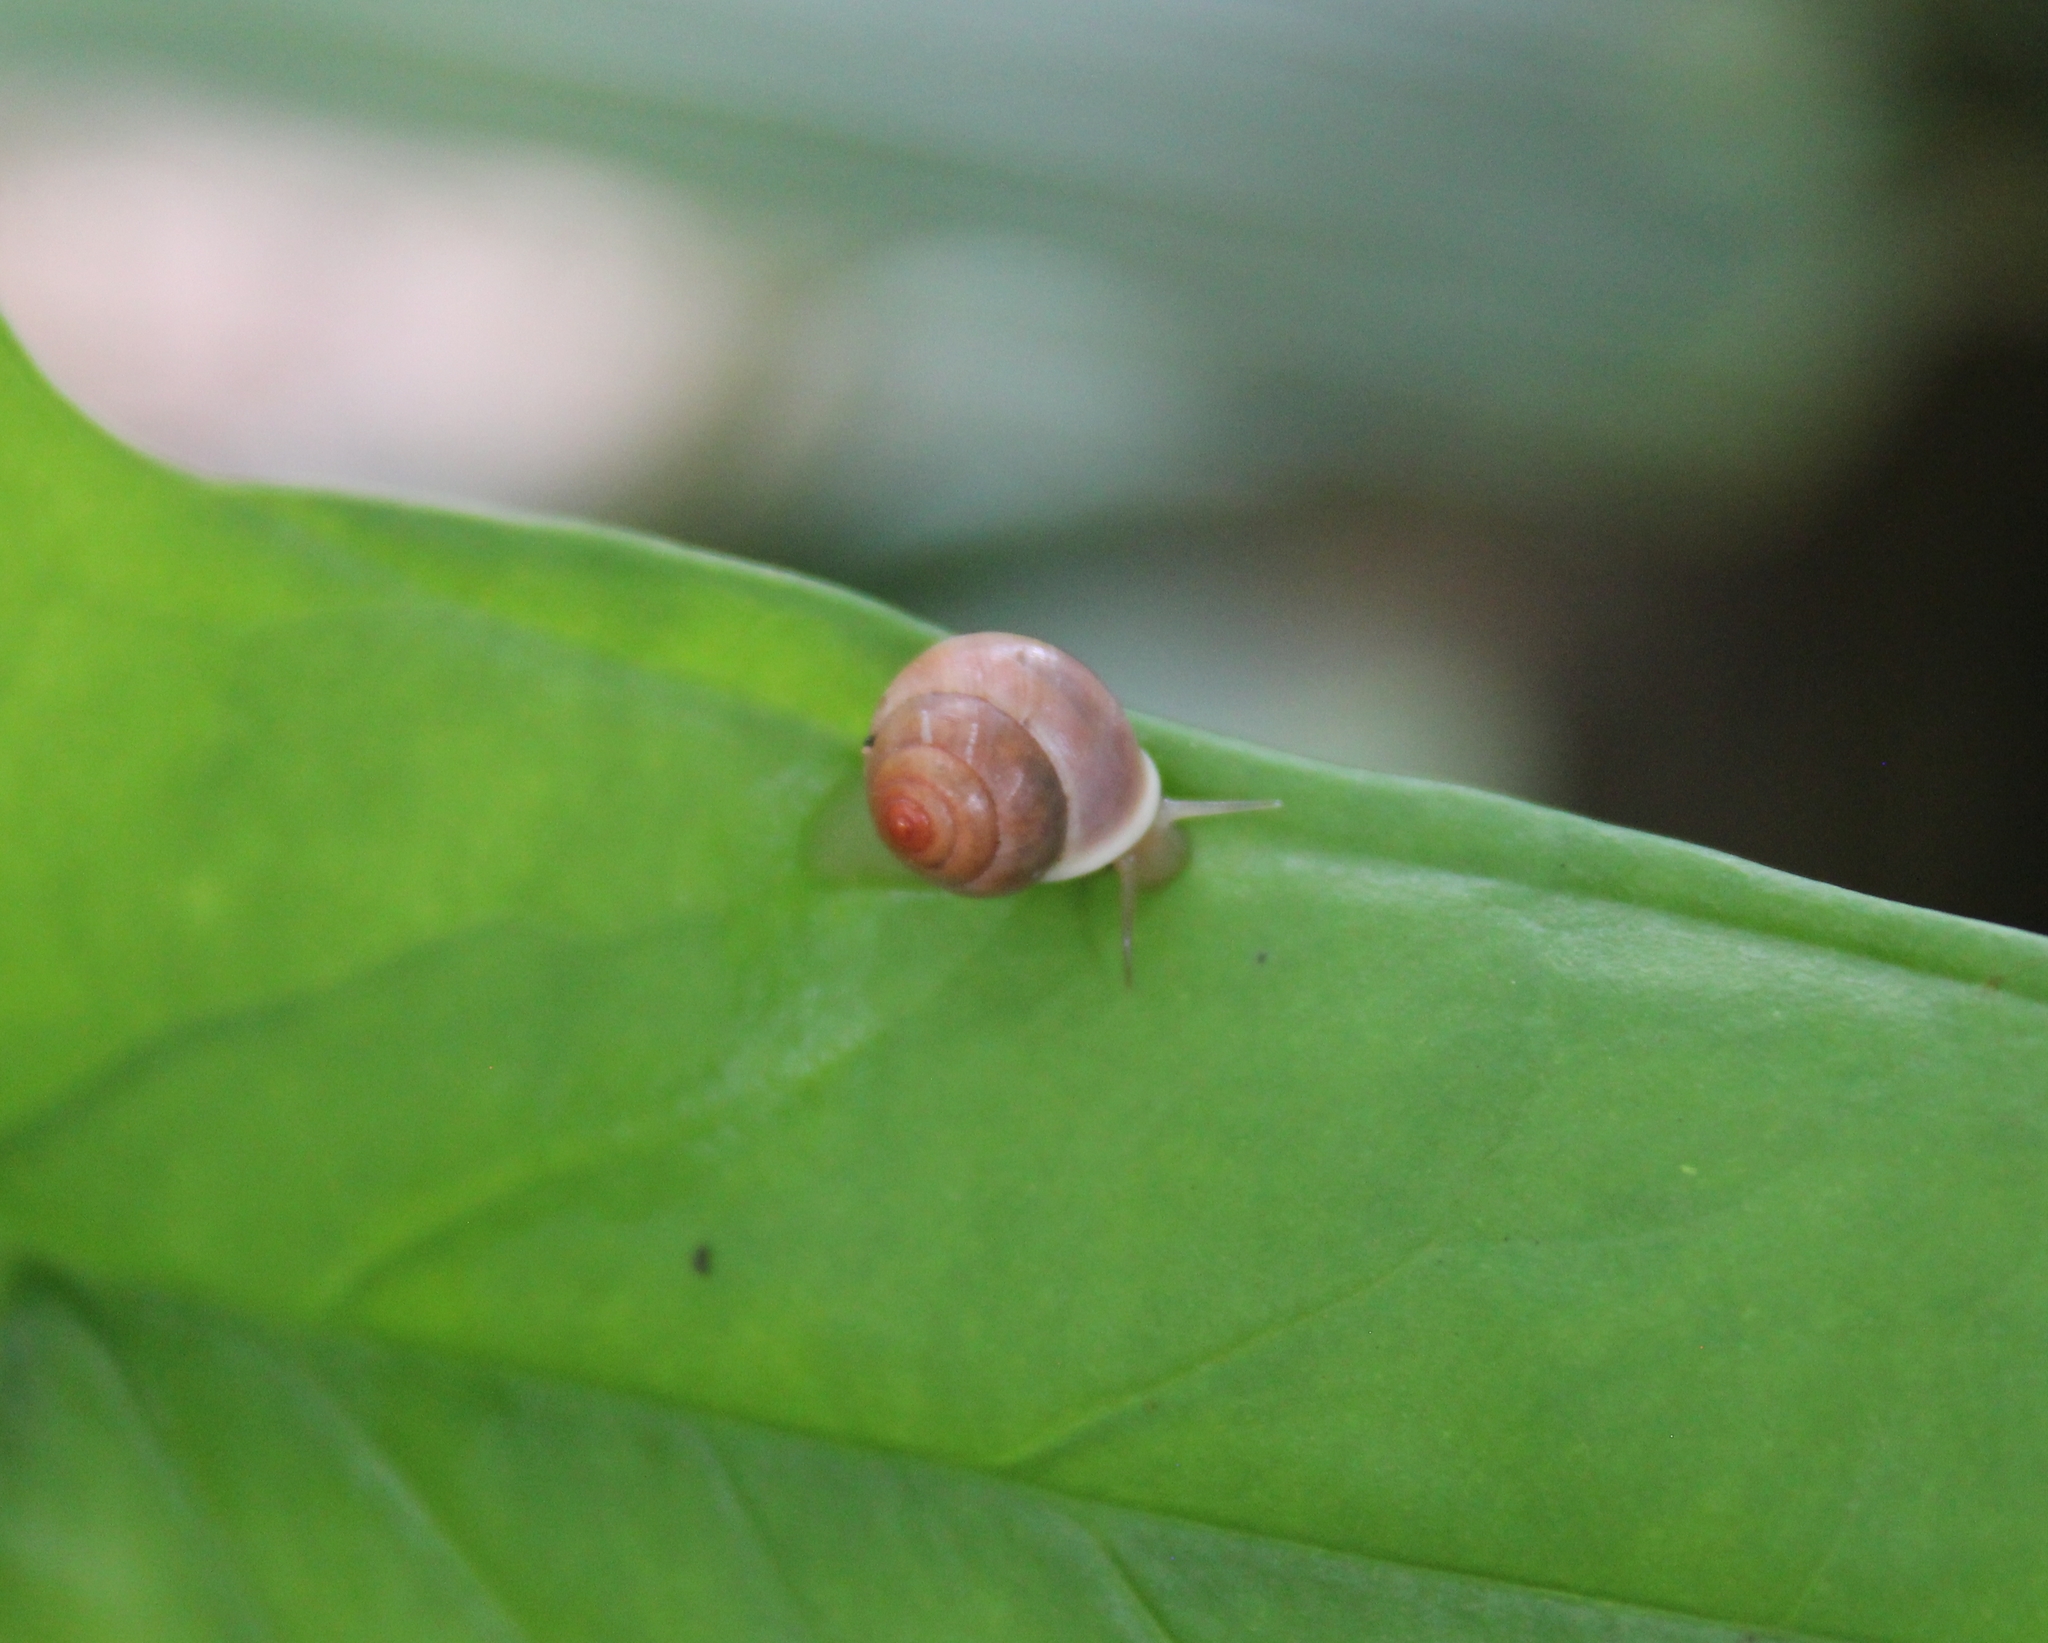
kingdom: Animalia
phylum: Mollusca
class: Gastropoda
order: Cycloneritida
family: Helicinidae
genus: Helicina
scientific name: Helicina tenuis
